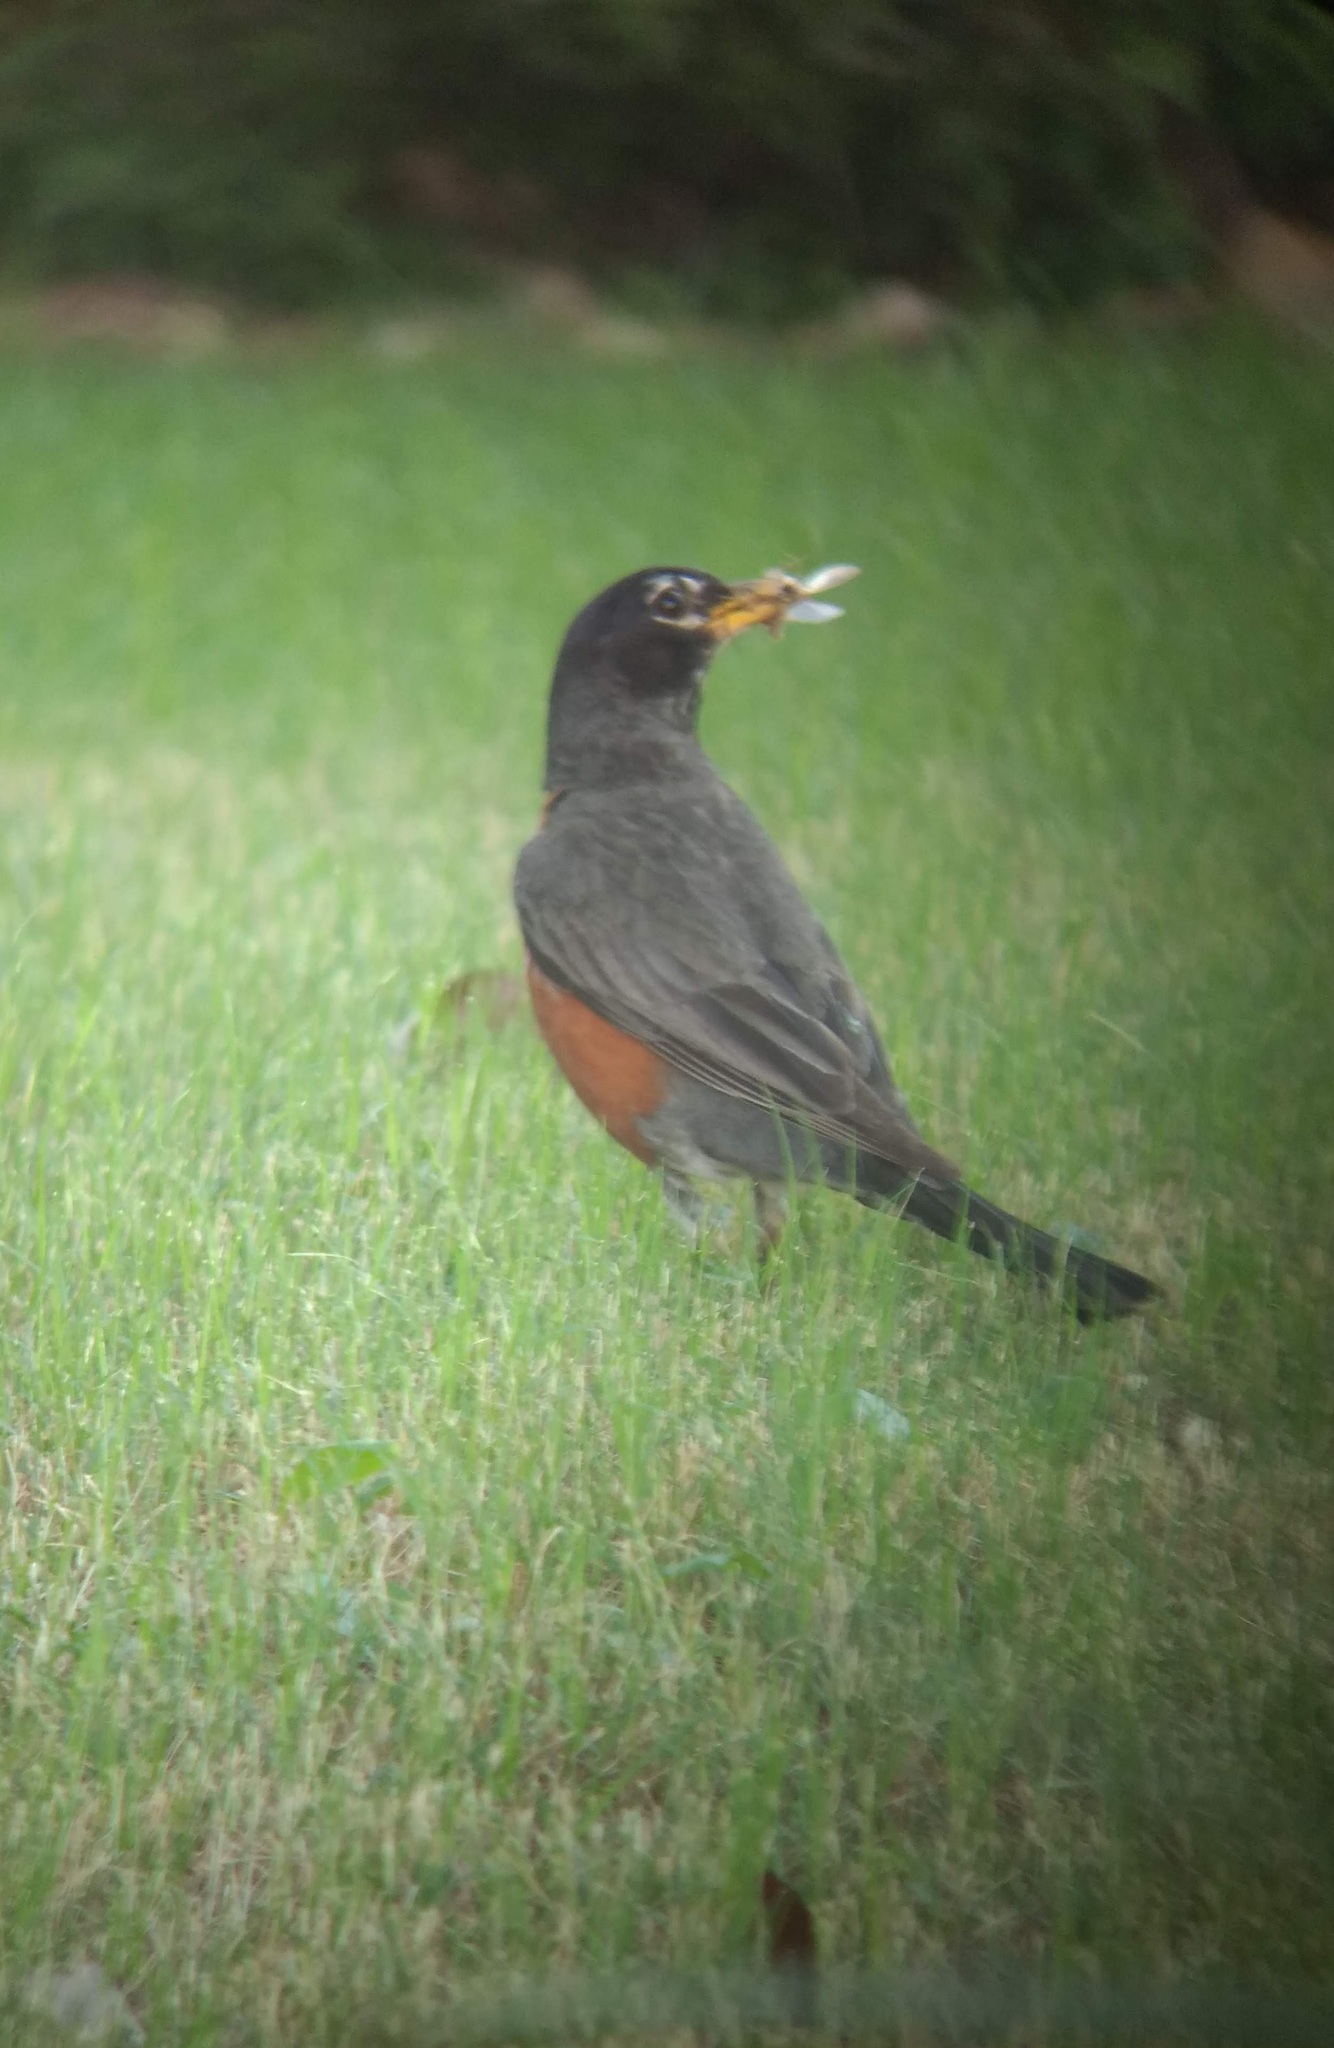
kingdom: Animalia
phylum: Chordata
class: Aves
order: Passeriformes
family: Turdidae
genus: Turdus
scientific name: Turdus migratorius
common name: American robin
